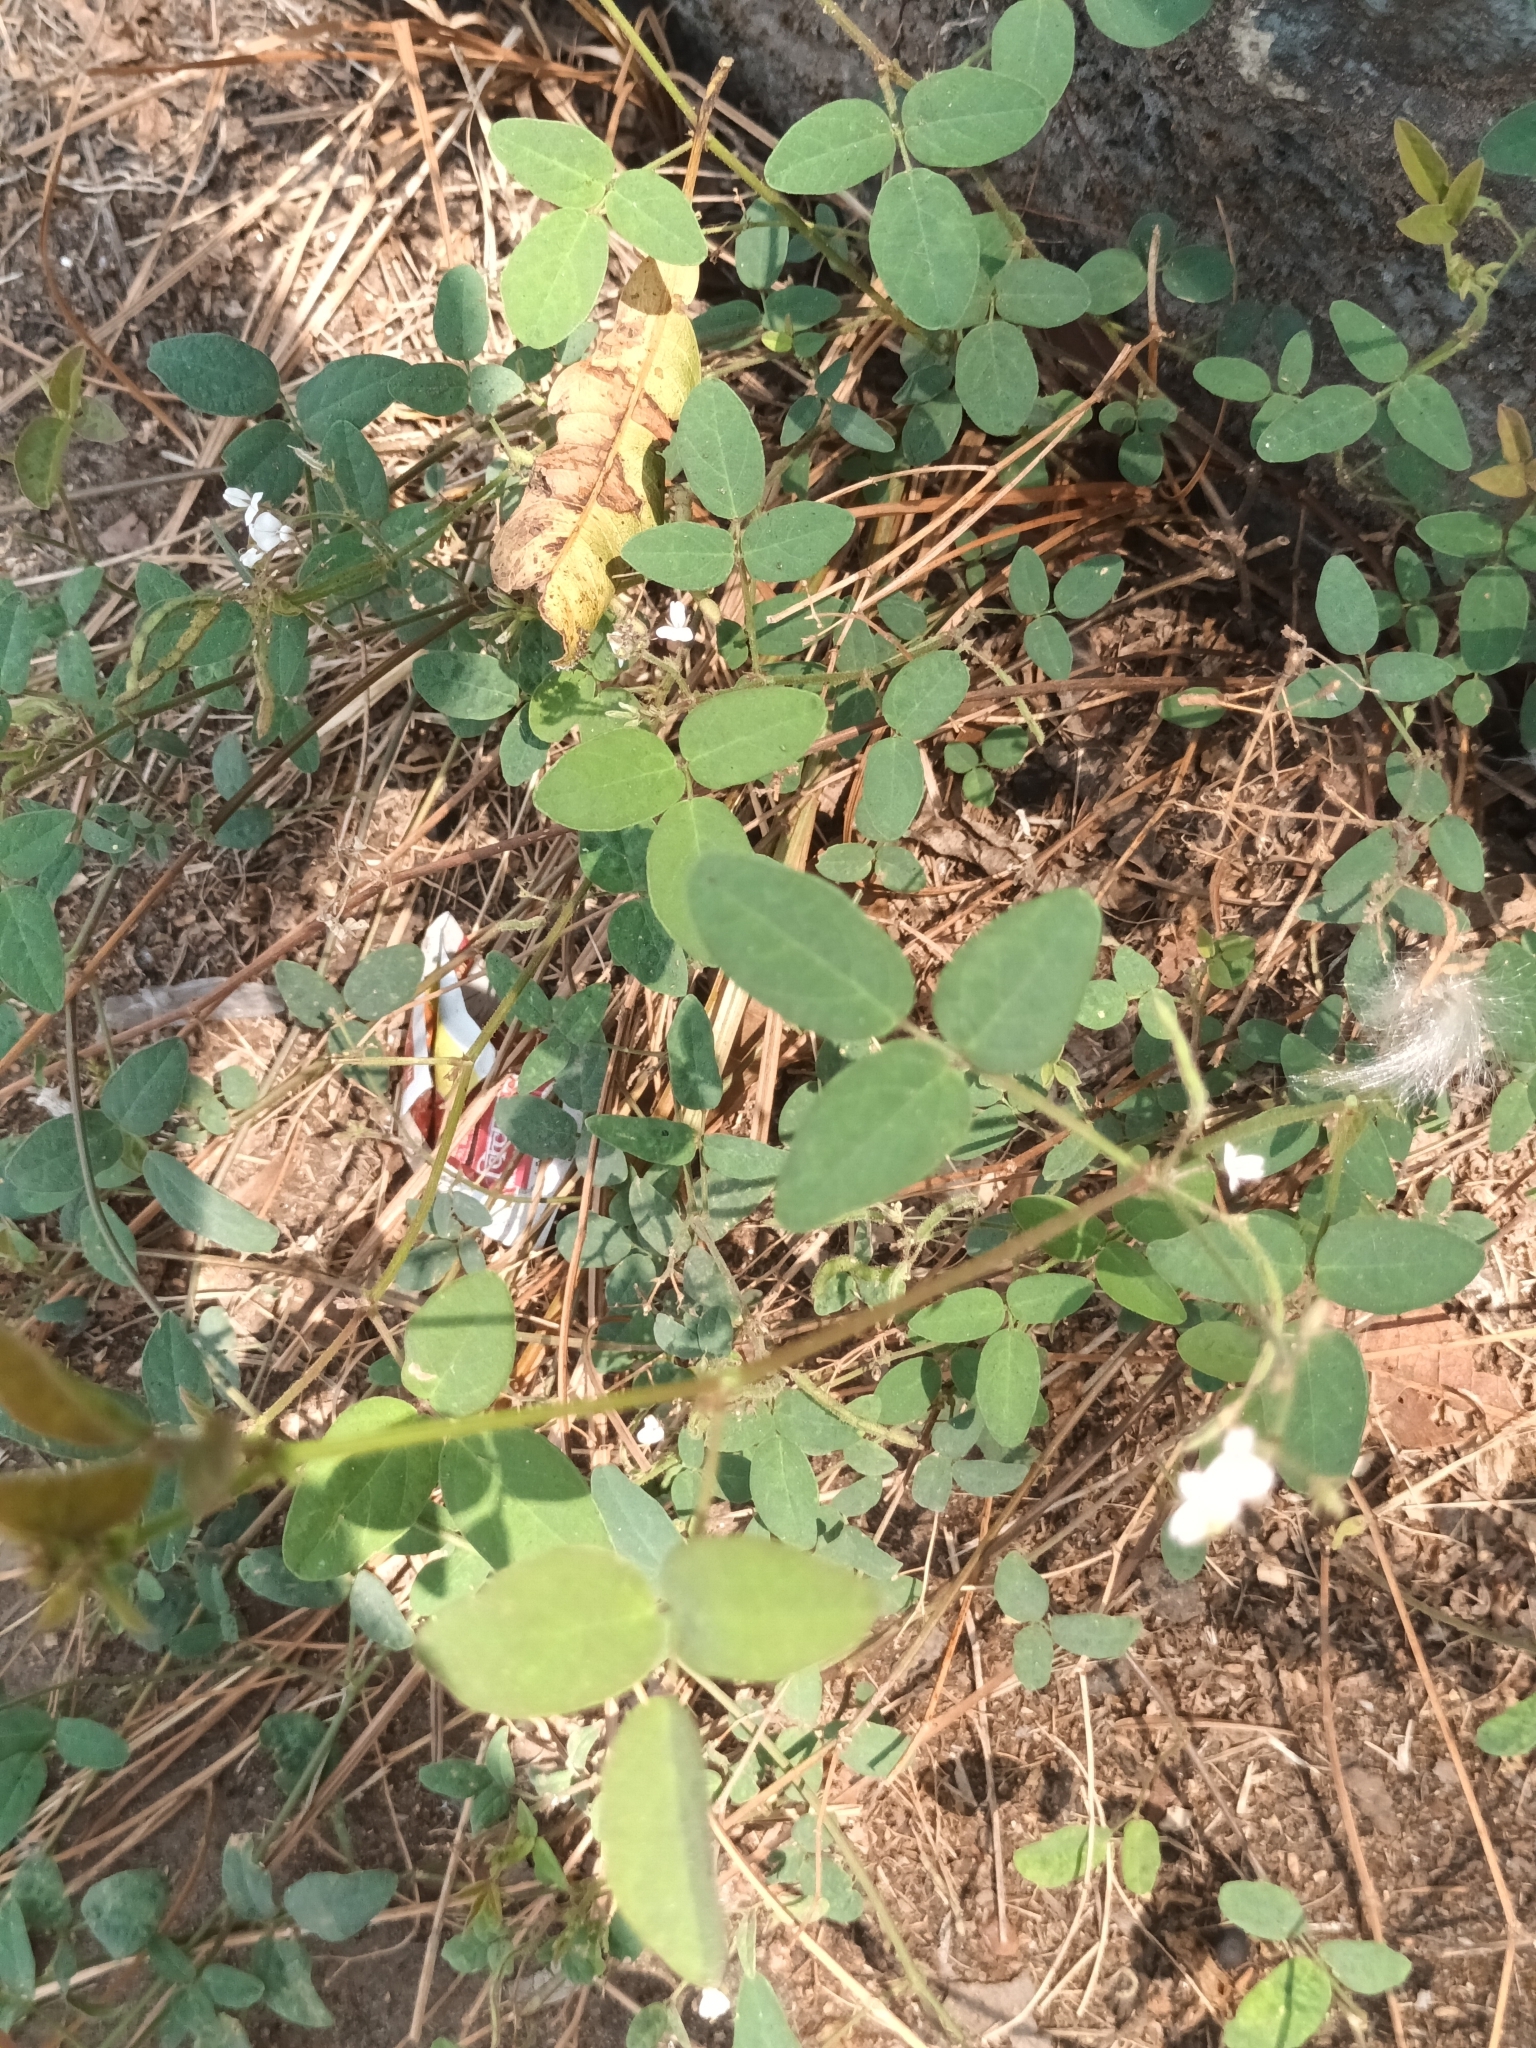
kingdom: Plantae
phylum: Tracheophyta
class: Magnoliopsida
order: Fabales
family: Fabaceae
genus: Desmodium
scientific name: Desmodium scorpiurus
